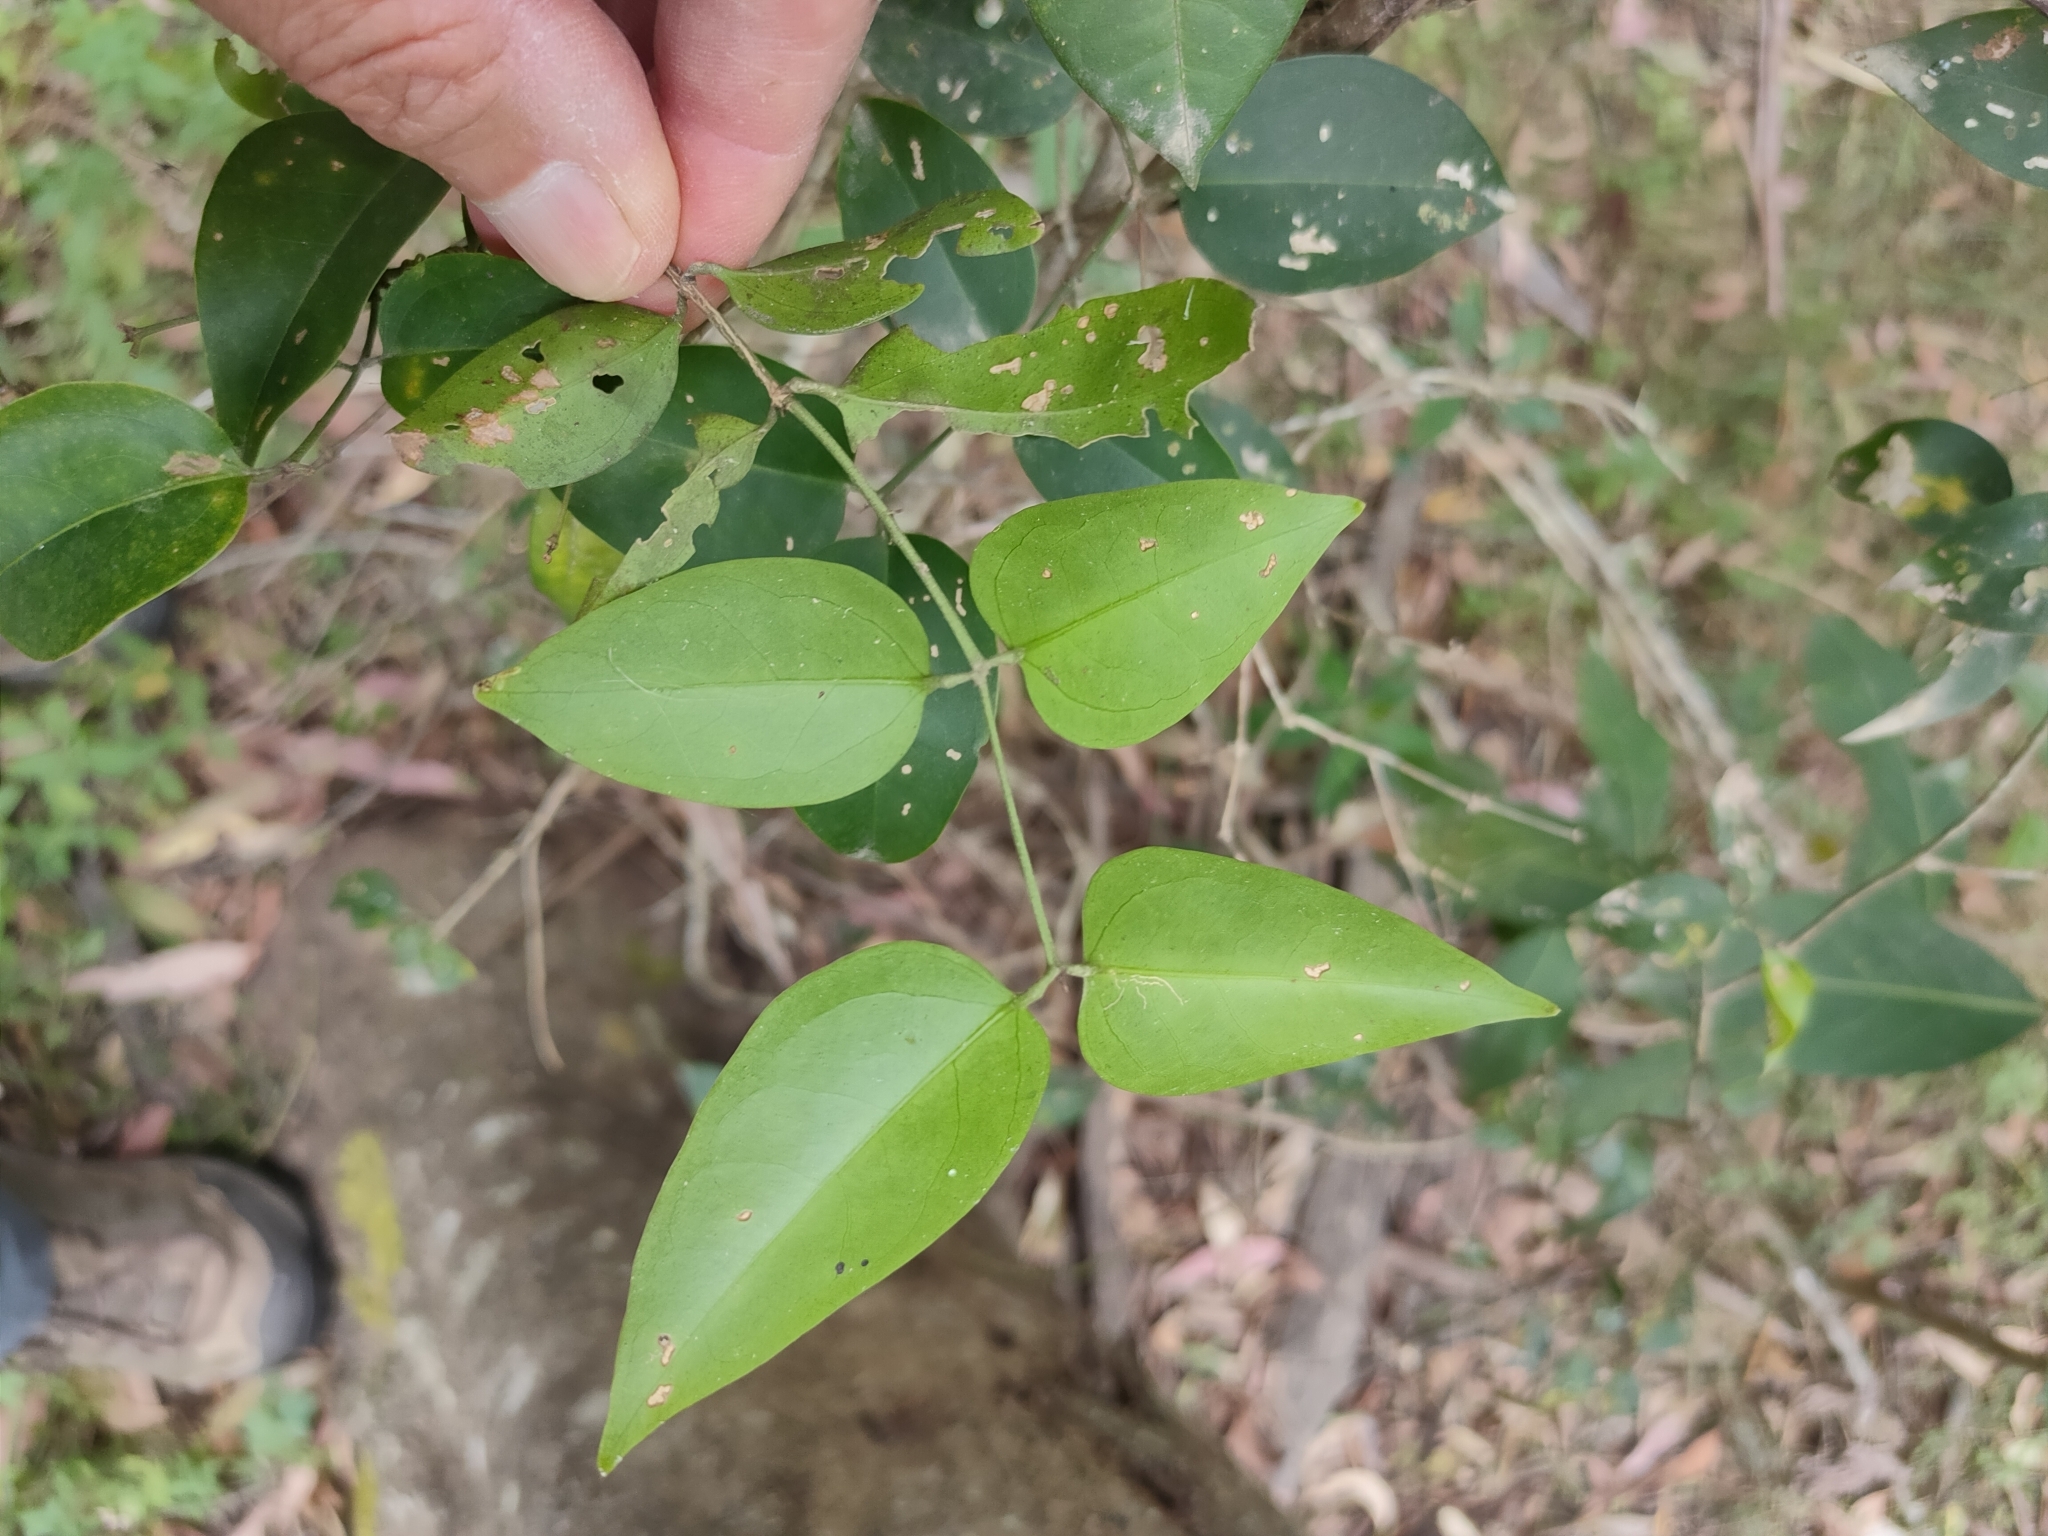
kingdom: Plantae
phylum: Tracheophyta
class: Magnoliopsida
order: Lamiales
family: Oleaceae
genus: Jasminum
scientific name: Jasminum simplicifolium
